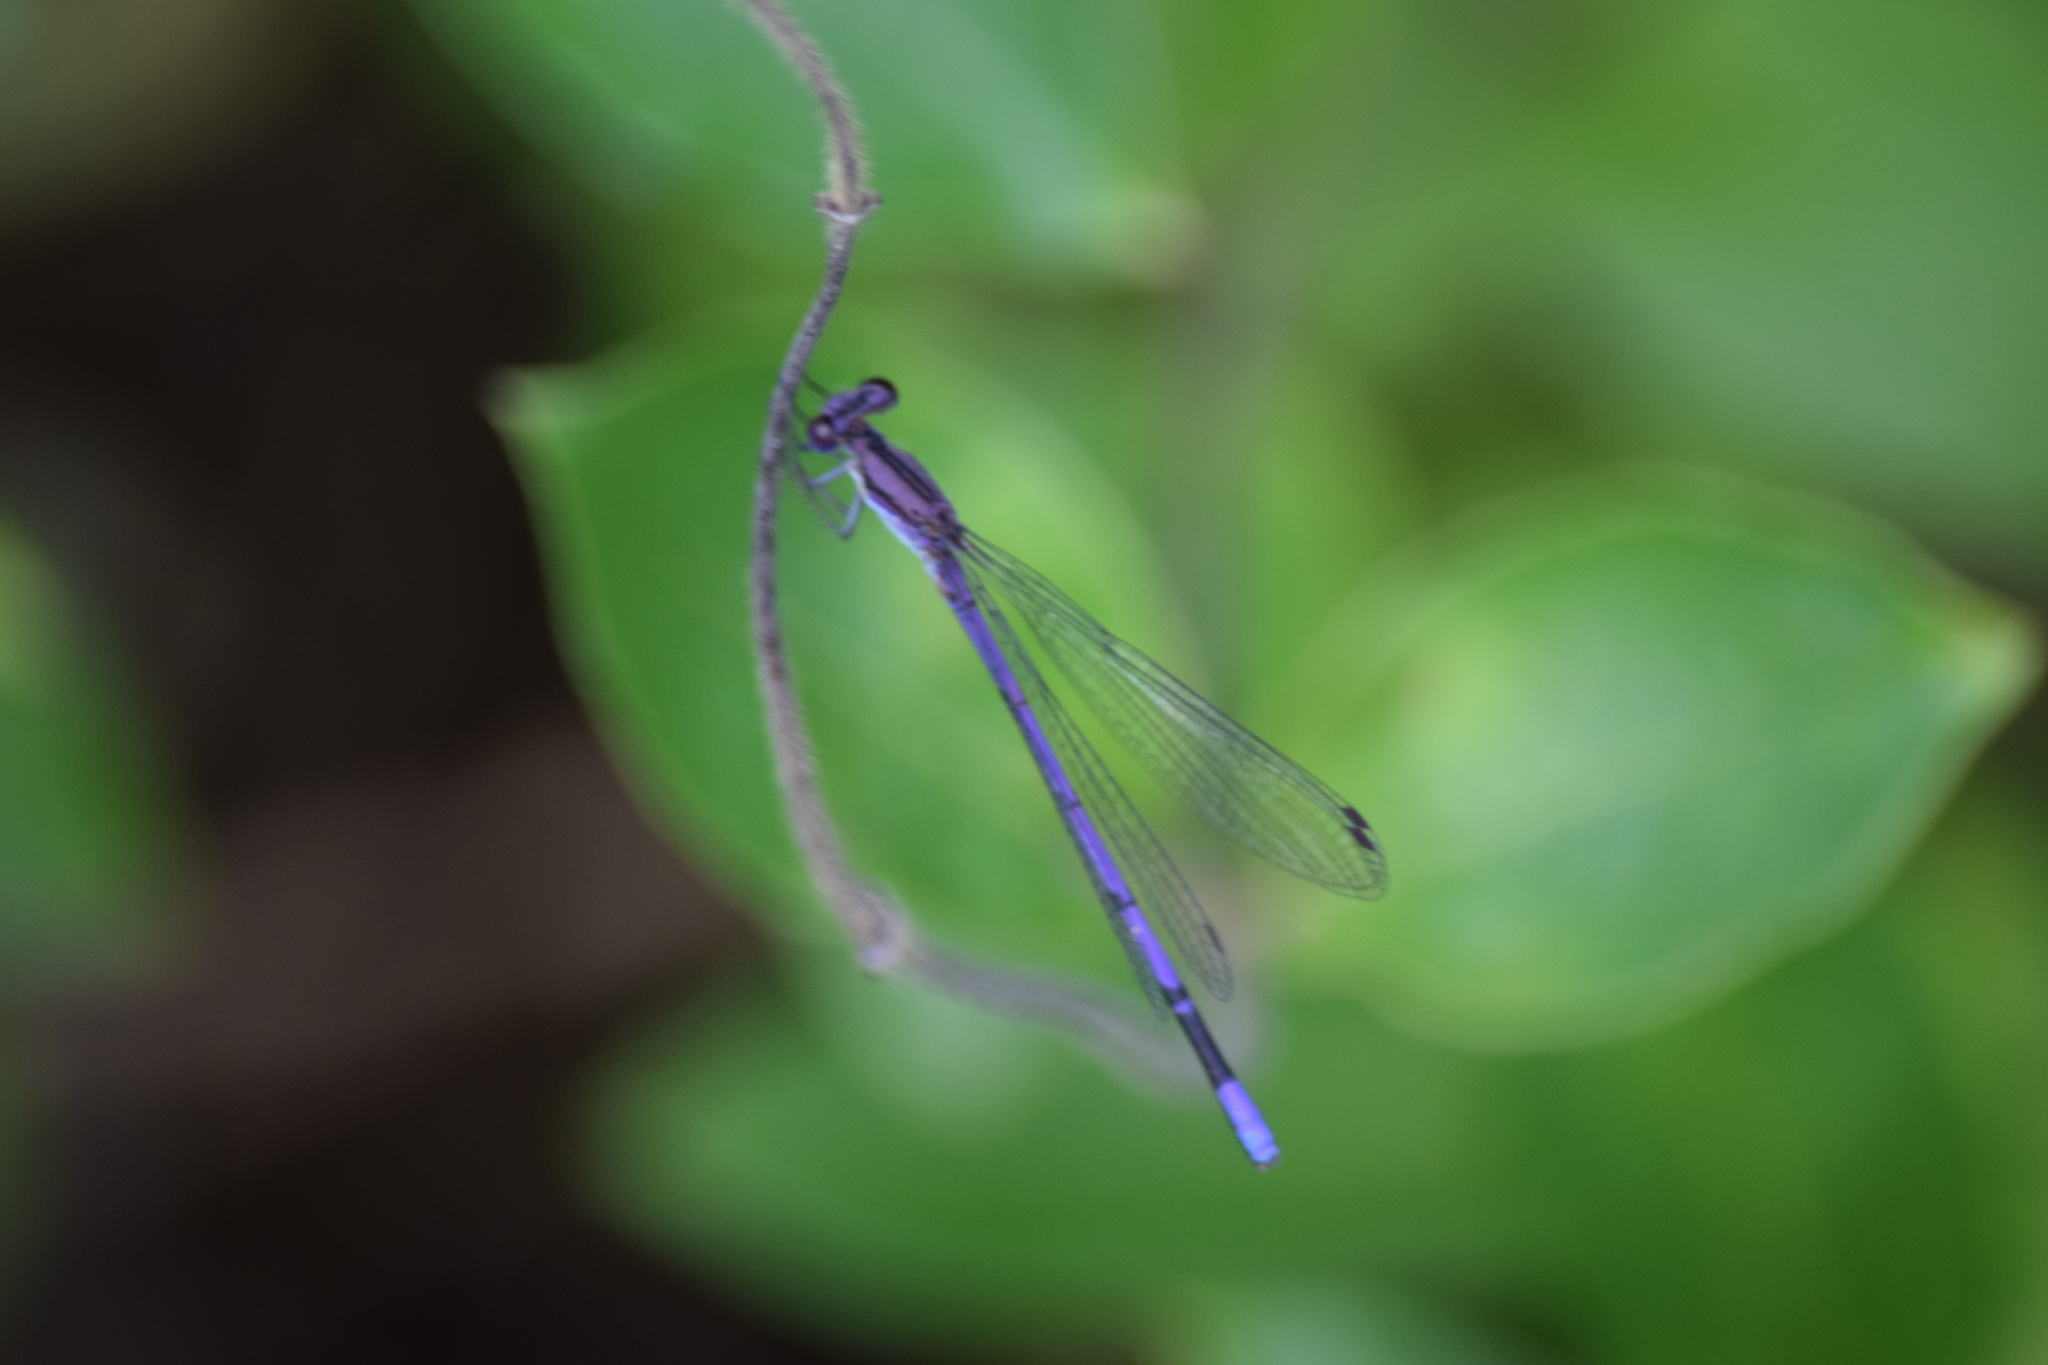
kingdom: Animalia
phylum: Arthropoda
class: Insecta
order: Odonata
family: Coenagrionidae
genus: Argia
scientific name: Argia fumipennis
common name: Variable dancer
